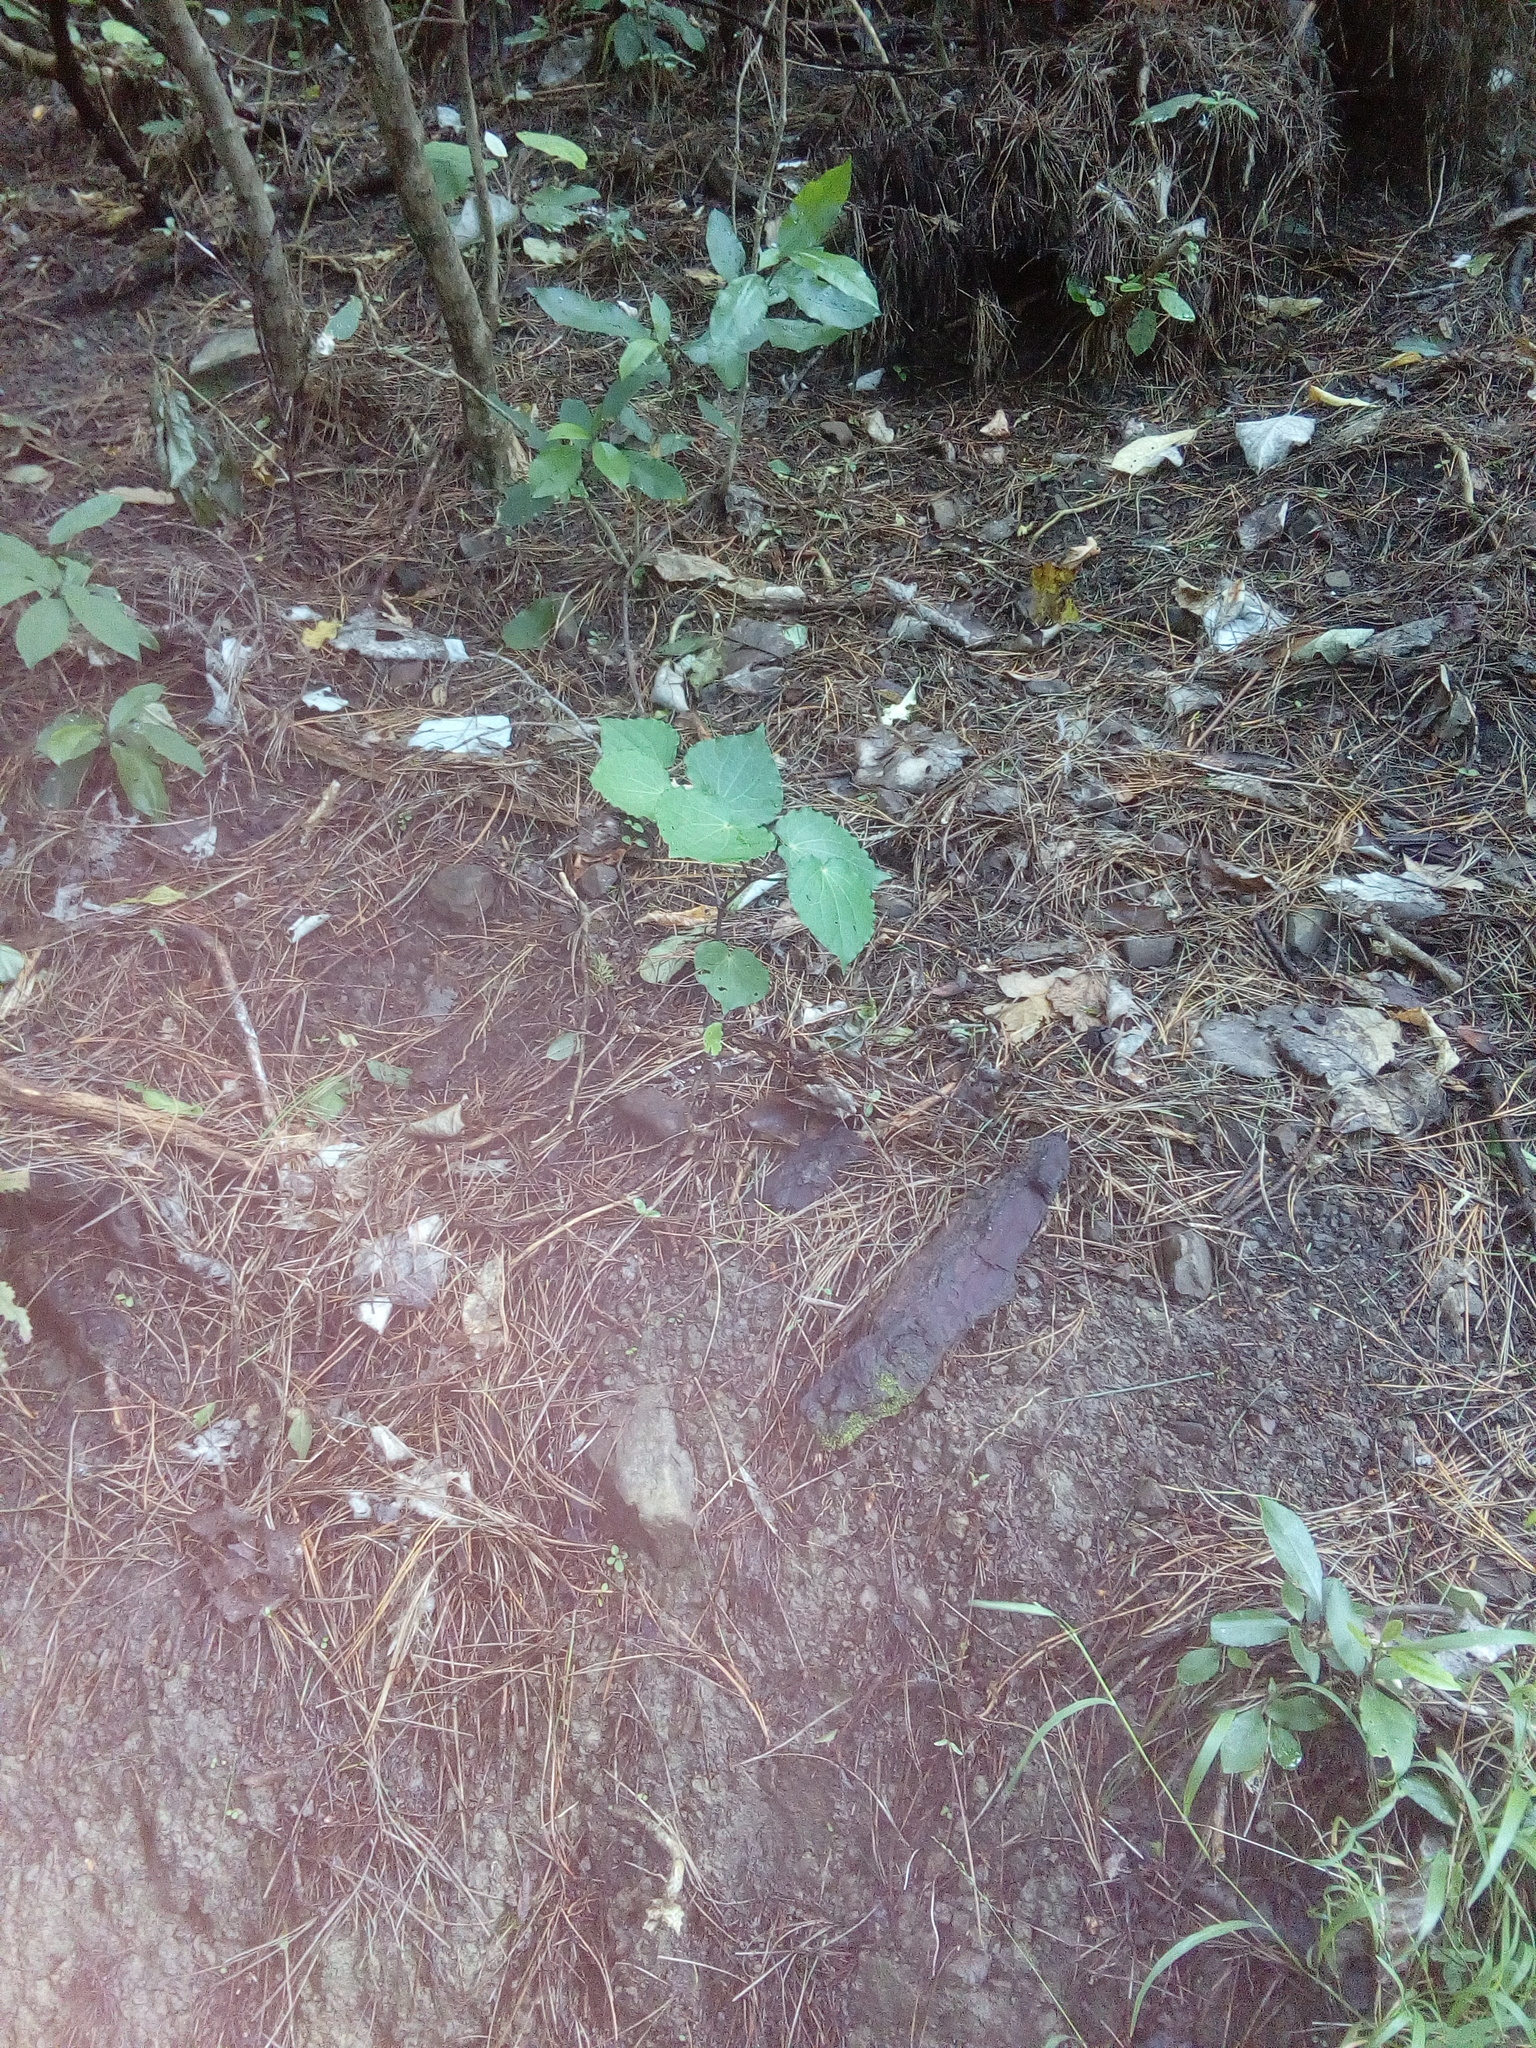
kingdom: Plantae
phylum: Tracheophyta
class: Magnoliopsida
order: Piperales
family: Piperaceae
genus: Macropiper
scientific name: Macropiper excelsum
